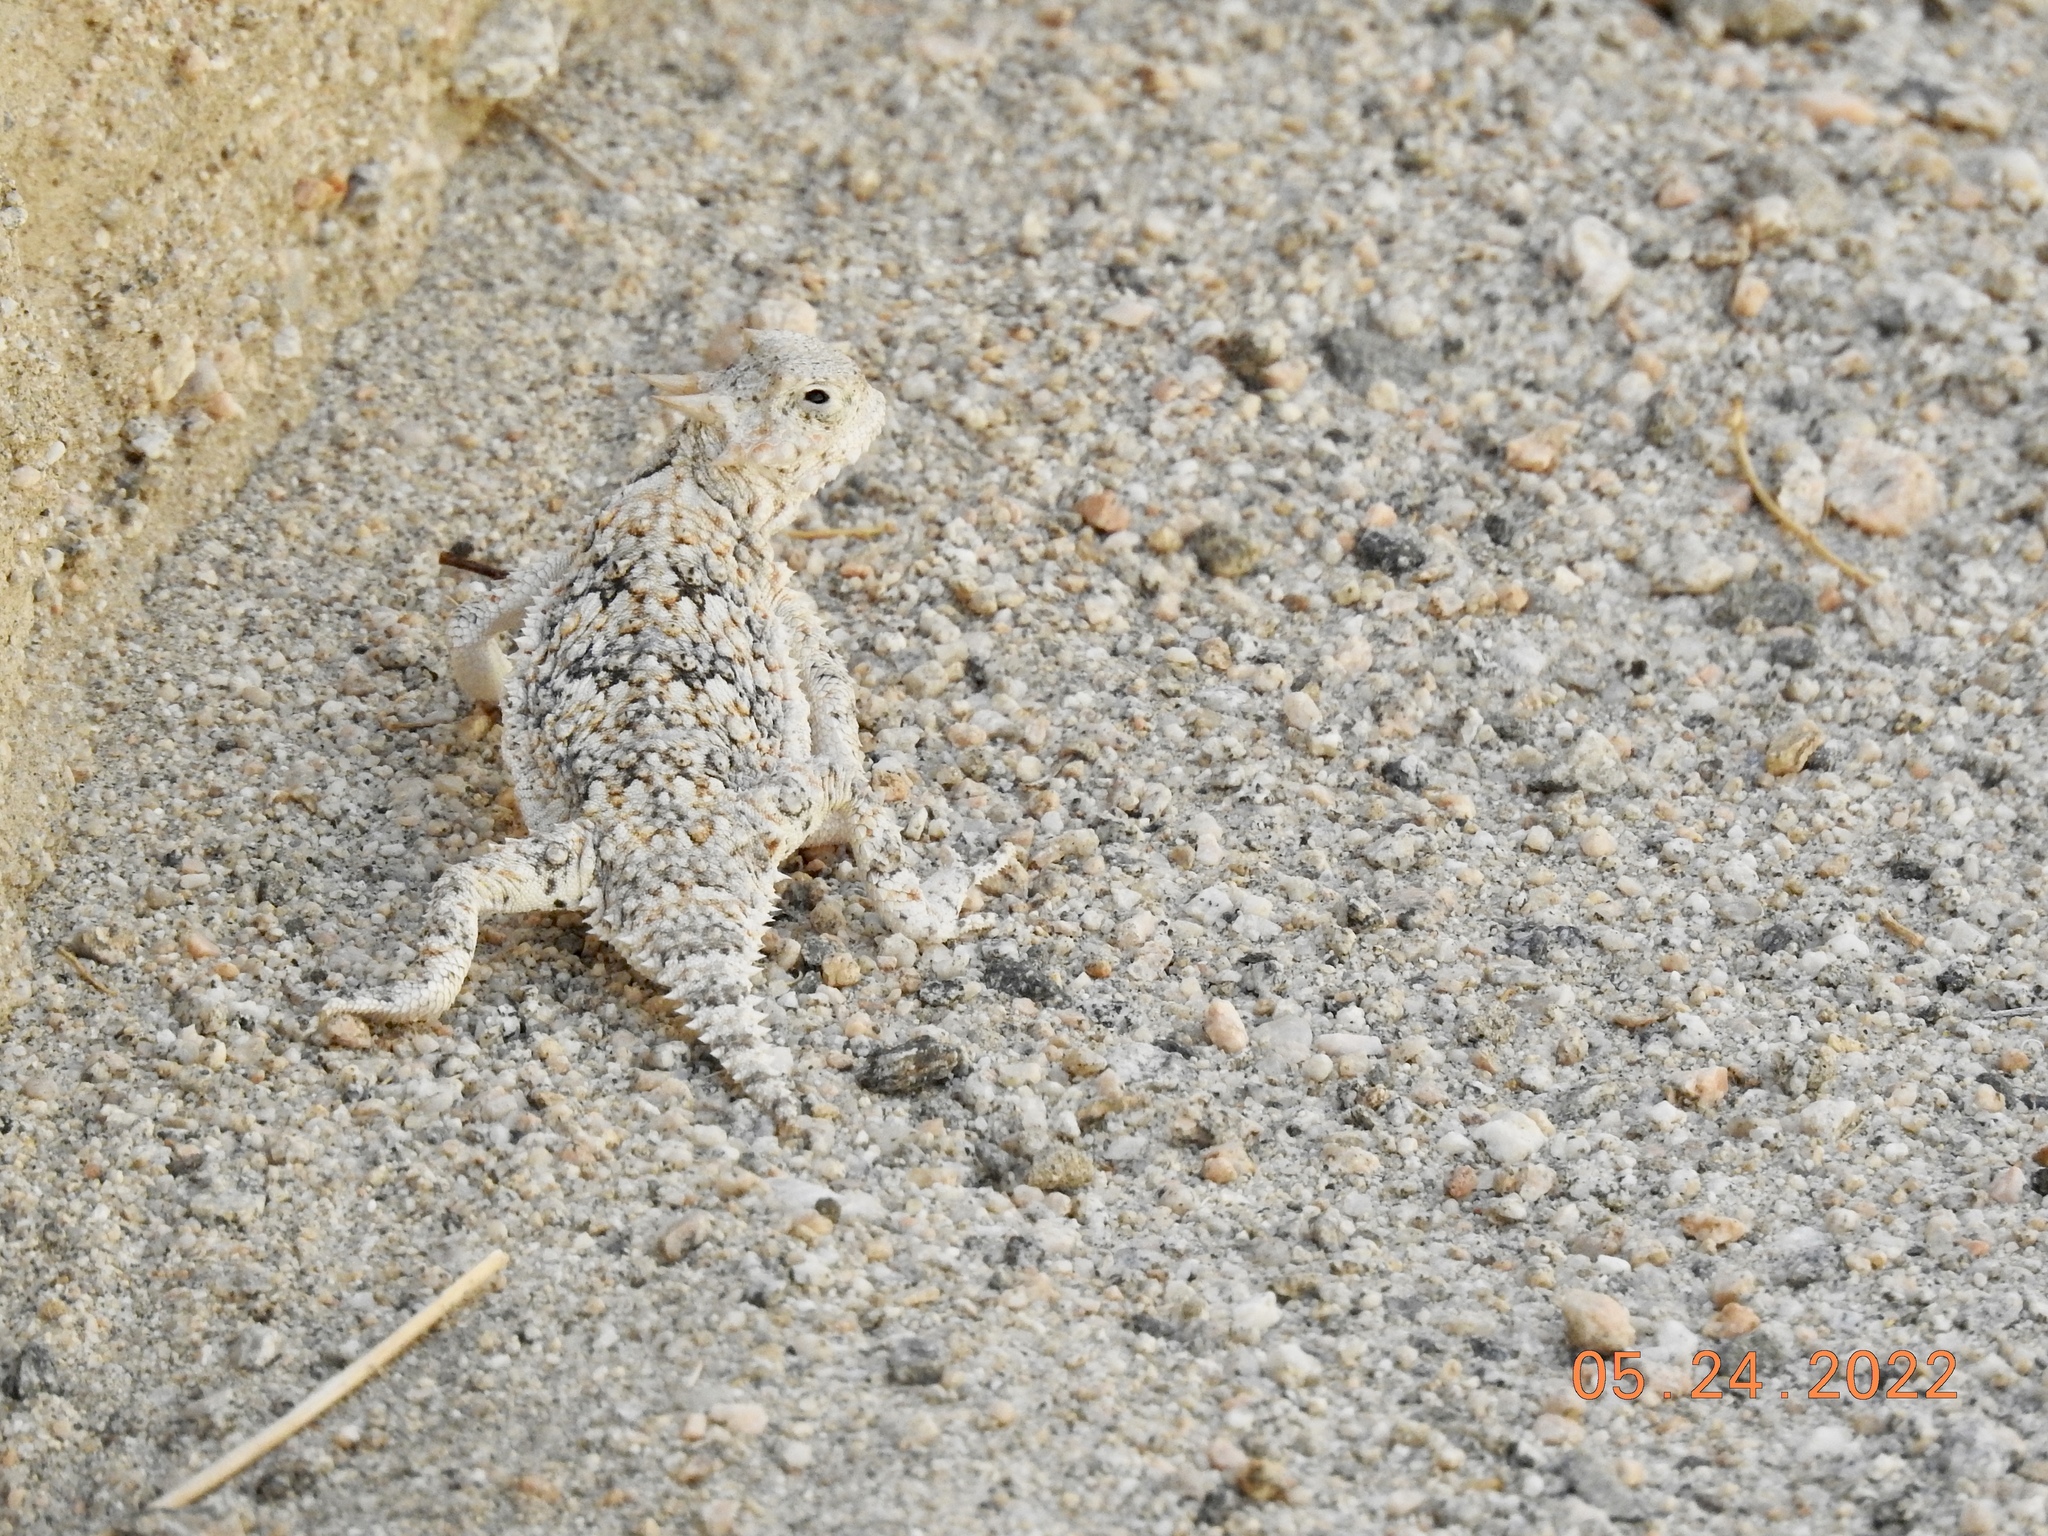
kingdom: Animalia
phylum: Chordata
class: Squamata
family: Phrynosomatidae
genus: Phrynosoma
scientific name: Phrynosoma platyrhinos
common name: Desert horned lizard
